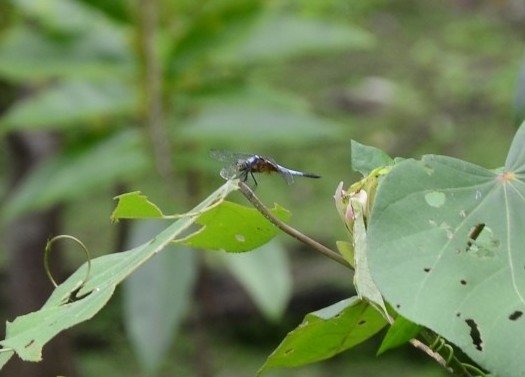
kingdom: Animalia
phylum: Arthropoda
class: Insecta
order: Odonata
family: Libellulidae
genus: Brachydiplax
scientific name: Brachydiplax chalybea
